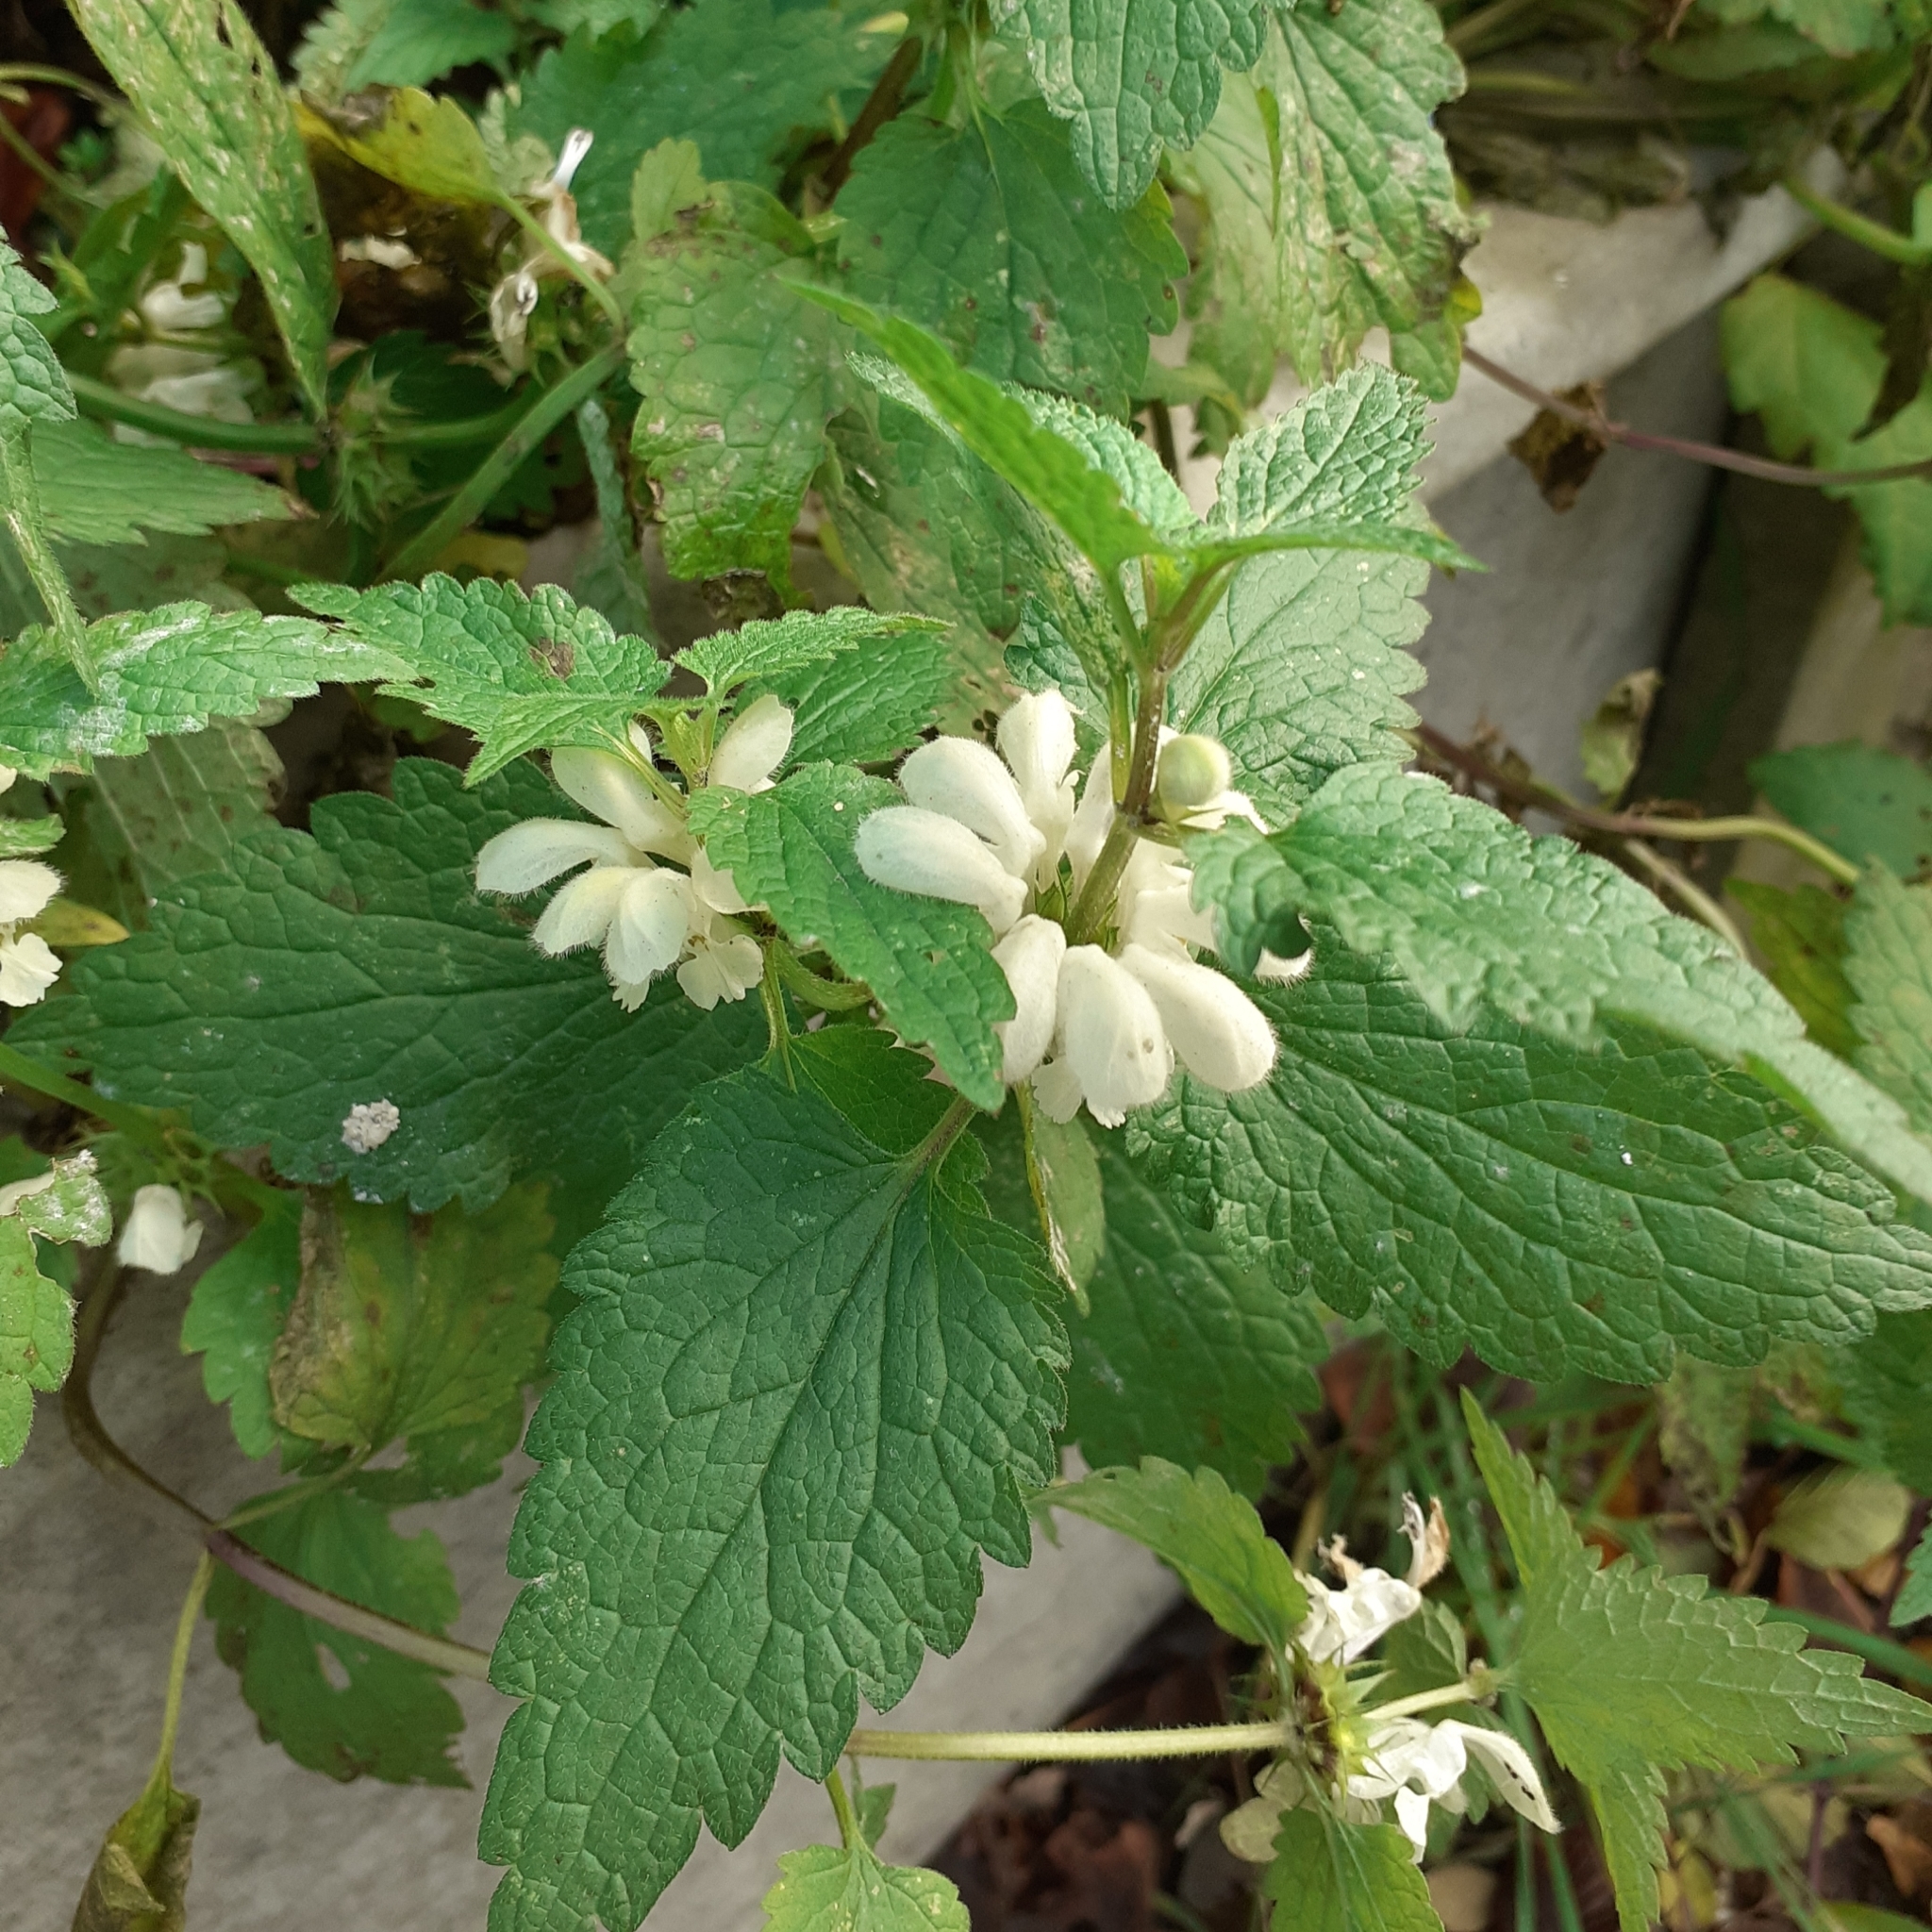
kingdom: Plantae
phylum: Tracheophyta
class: Magnoliopsida
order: Lamiales
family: Lamiaceae
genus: Lamium
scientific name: Lamium album
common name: White dead-nettle
